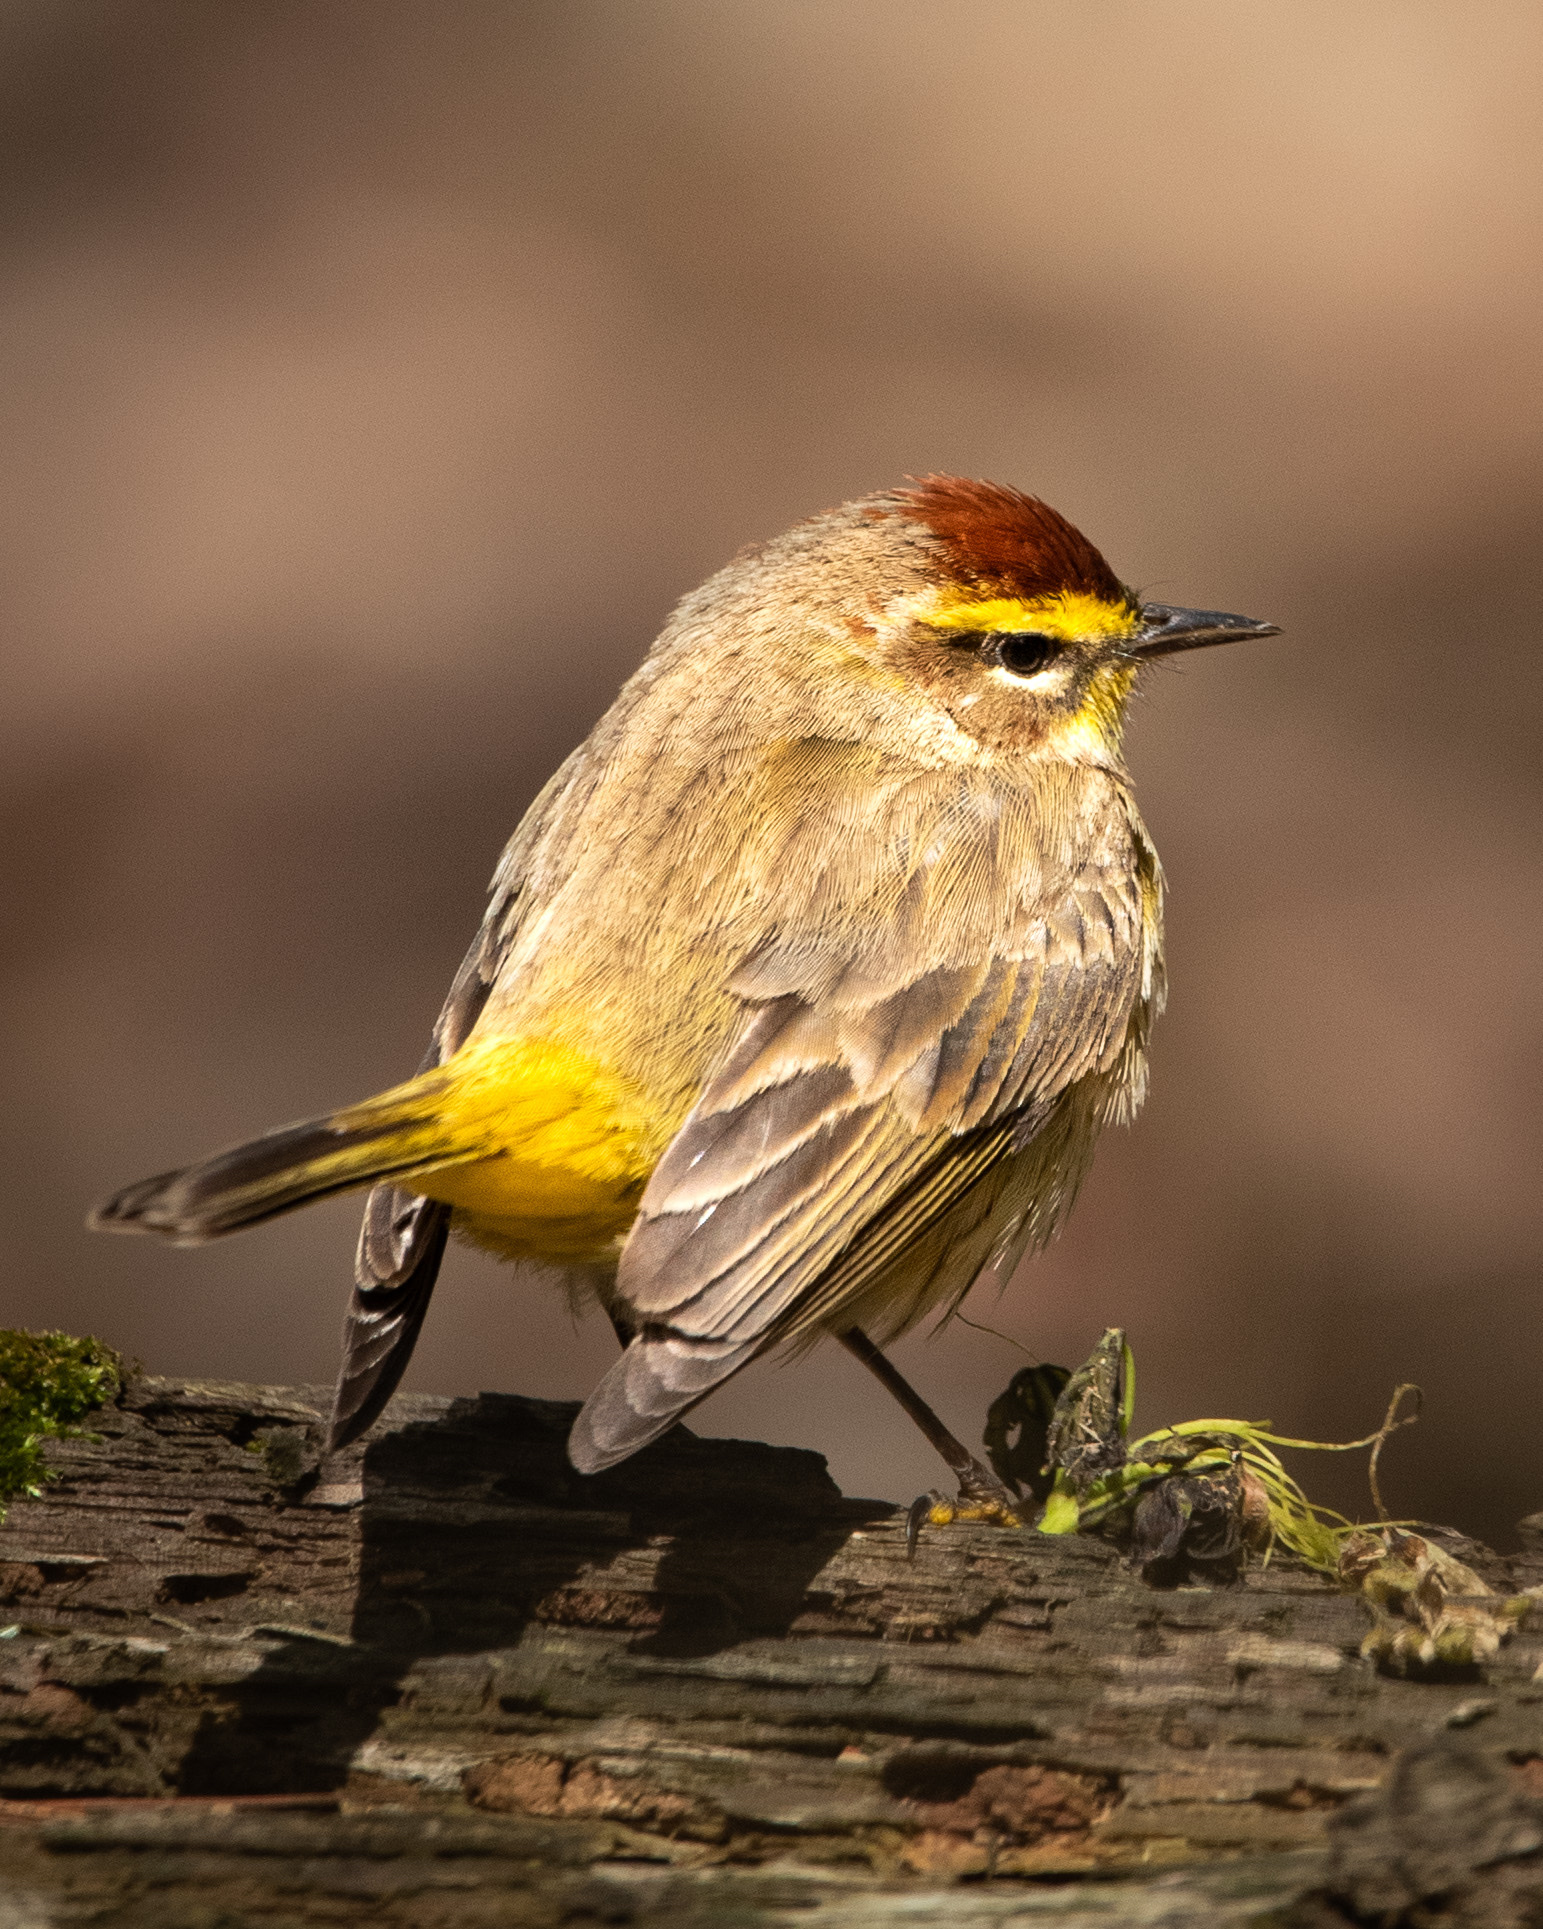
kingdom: Animalia
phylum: Chordata
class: Aves
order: Passeriformes
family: Parulidae
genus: Setophaga
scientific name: Setophaga palmarum
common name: Palm warbler
